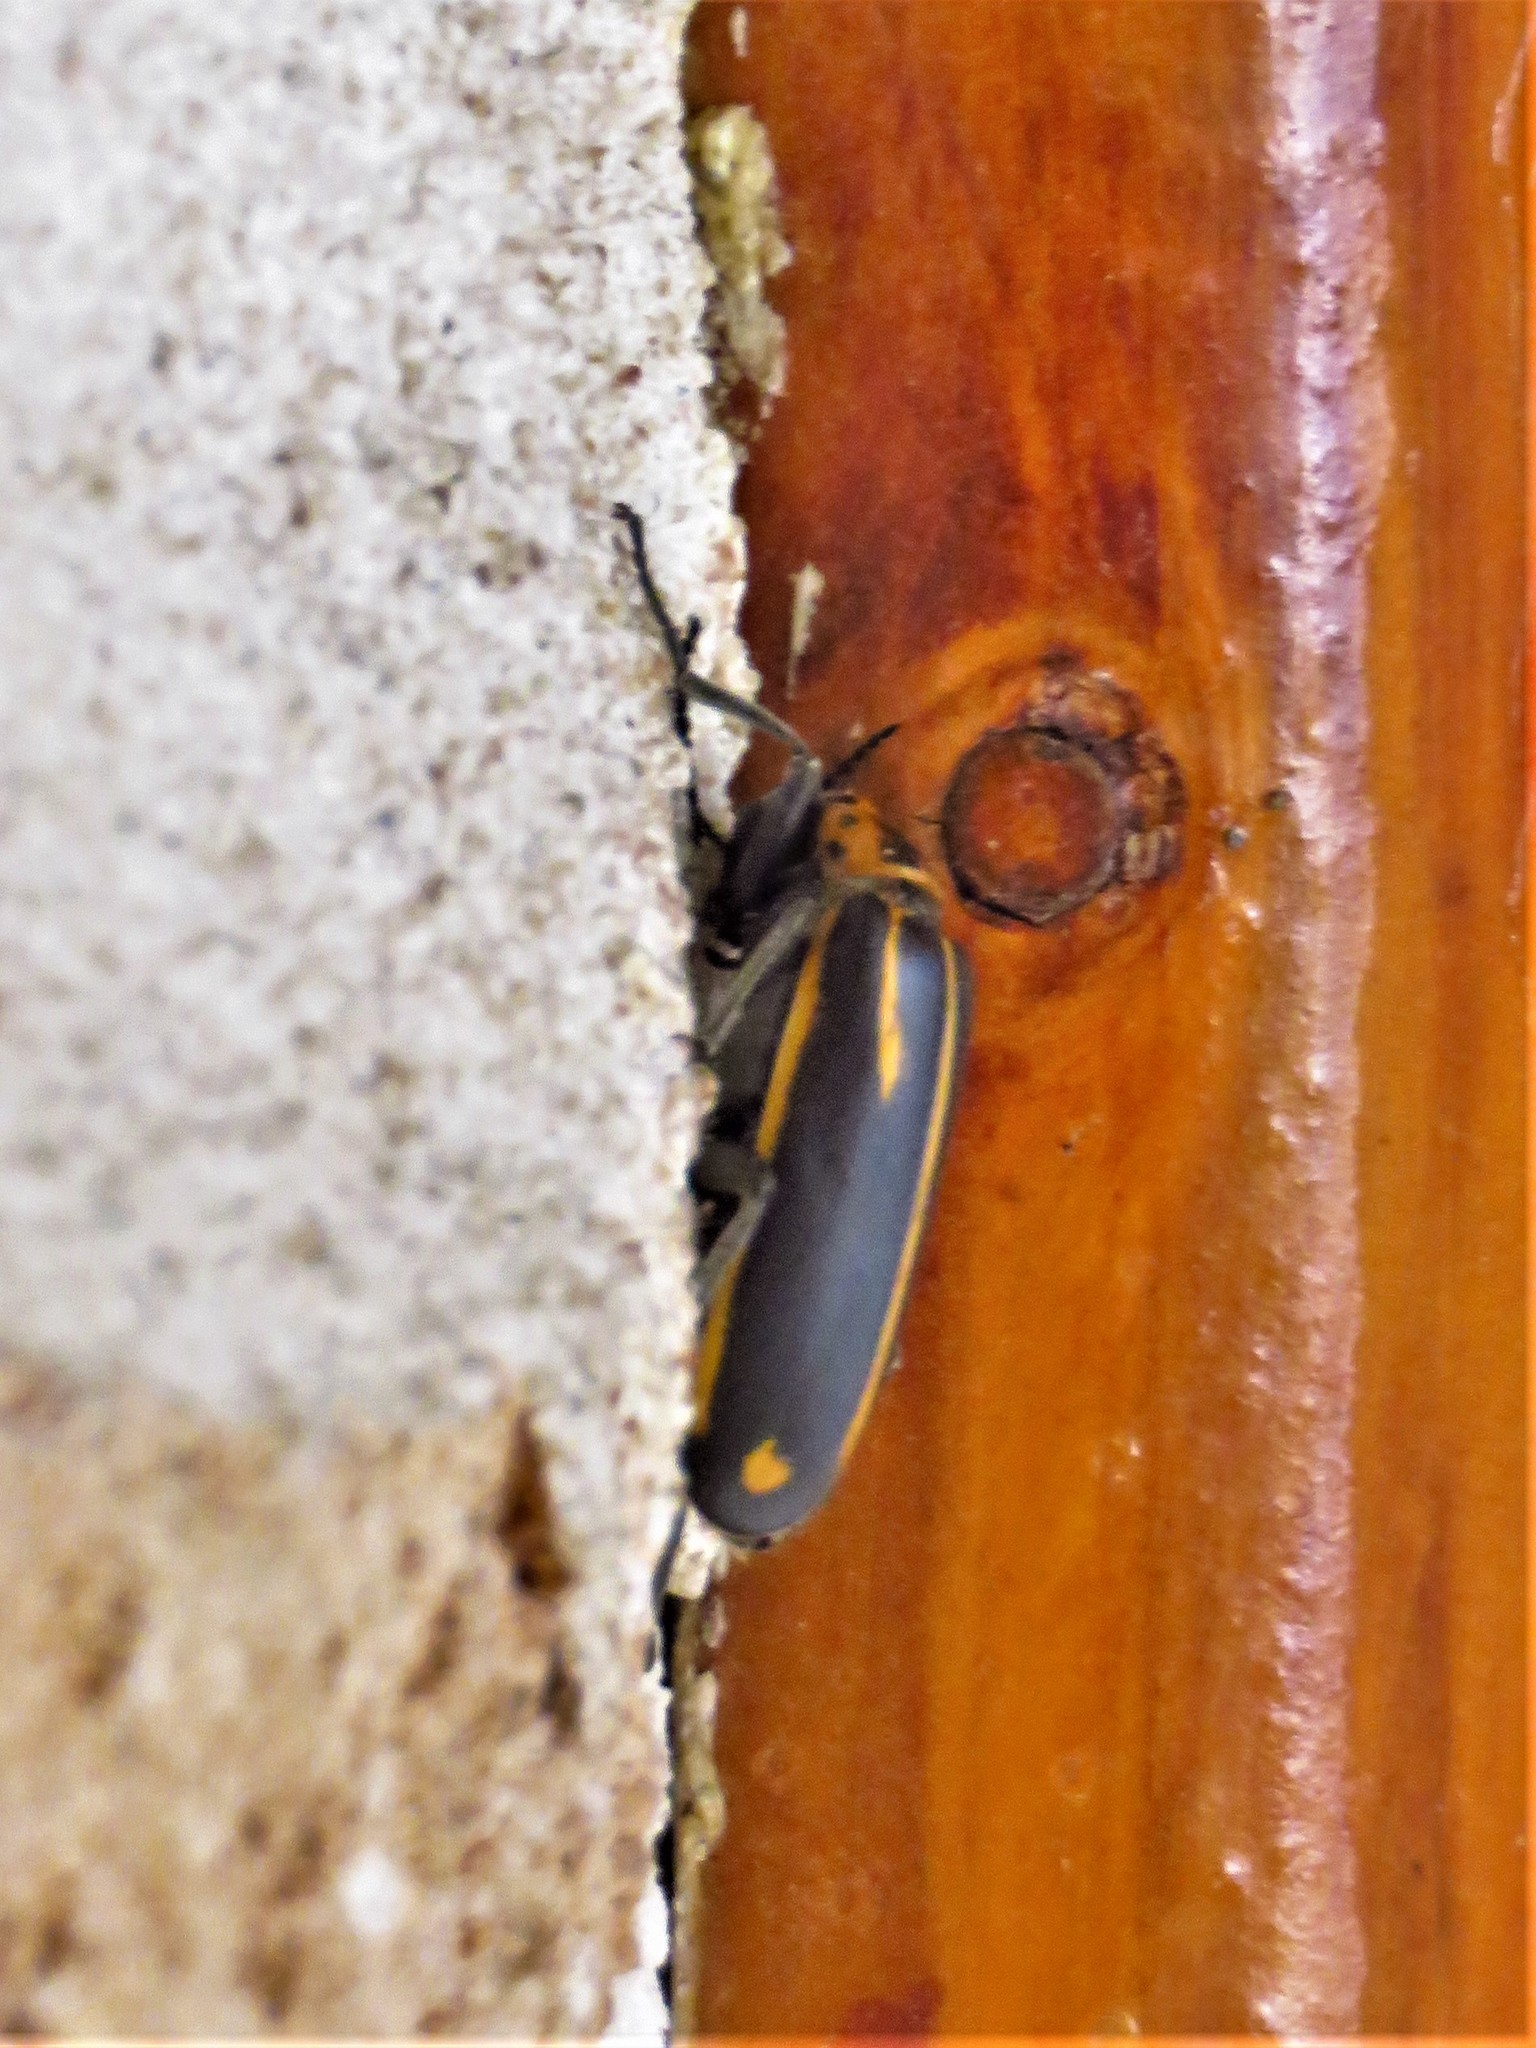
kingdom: Animalia
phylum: Arthropoda
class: Insecta
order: Coleoptera
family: Meloidae
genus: Pyrota
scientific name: Pyrota insulata
